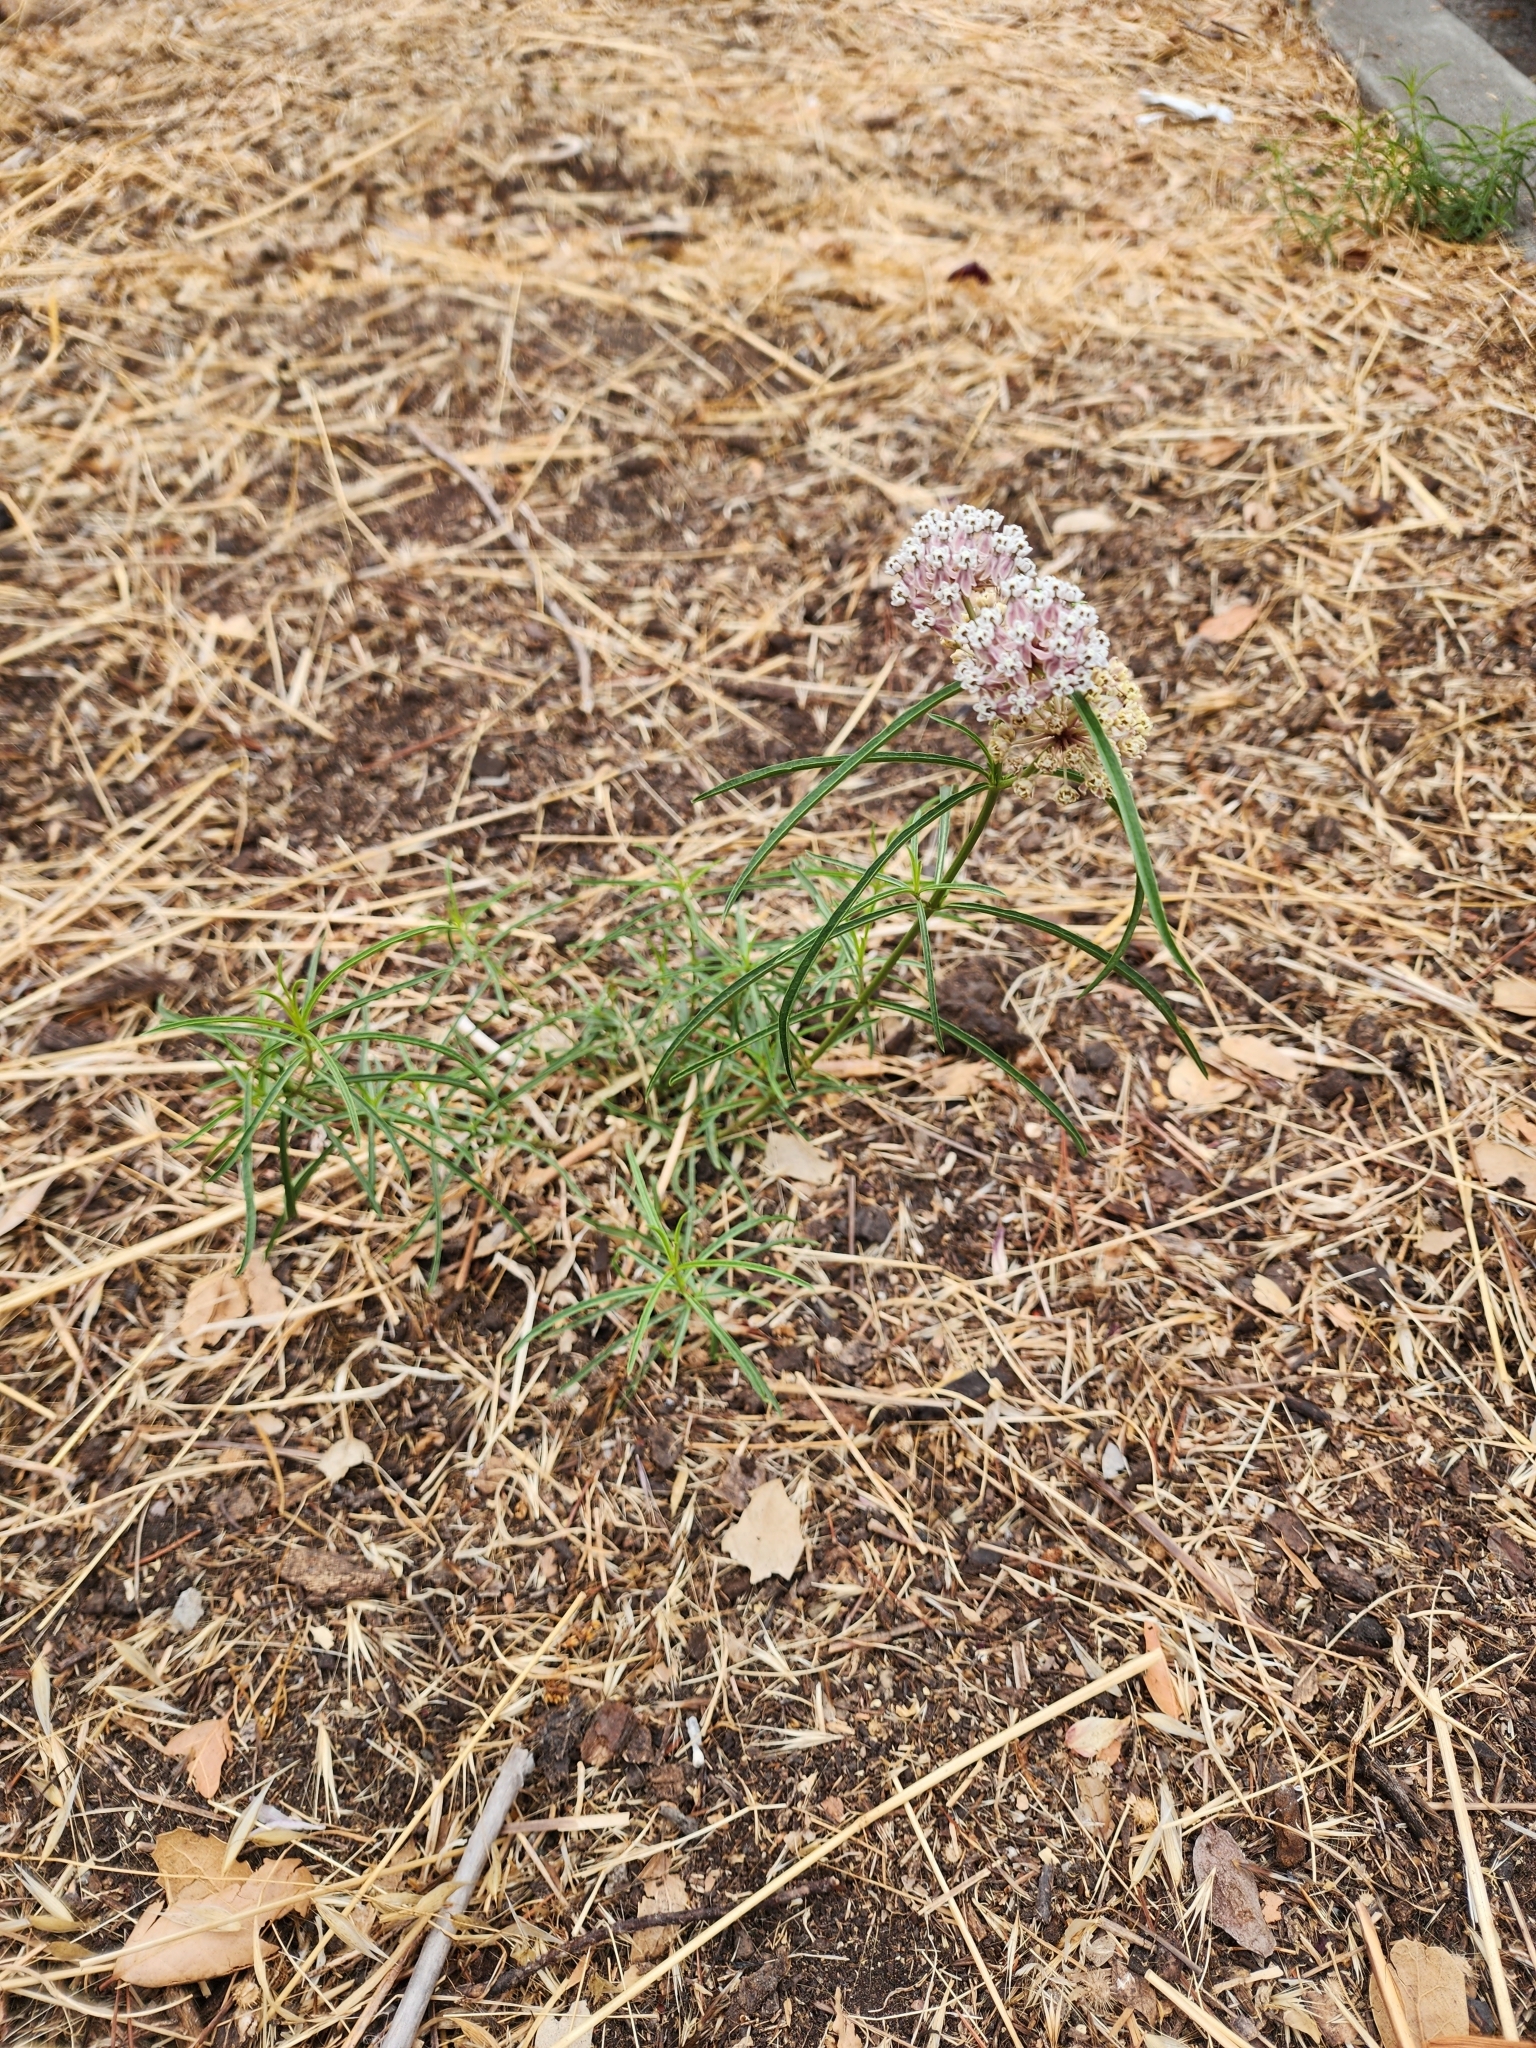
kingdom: Plantae
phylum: Tracheophyta
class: Magnoliopsida
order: Gentianales
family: Apocynaceae
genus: Asclepias
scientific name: Asclepias fascicularis
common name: Mexican milkweed
